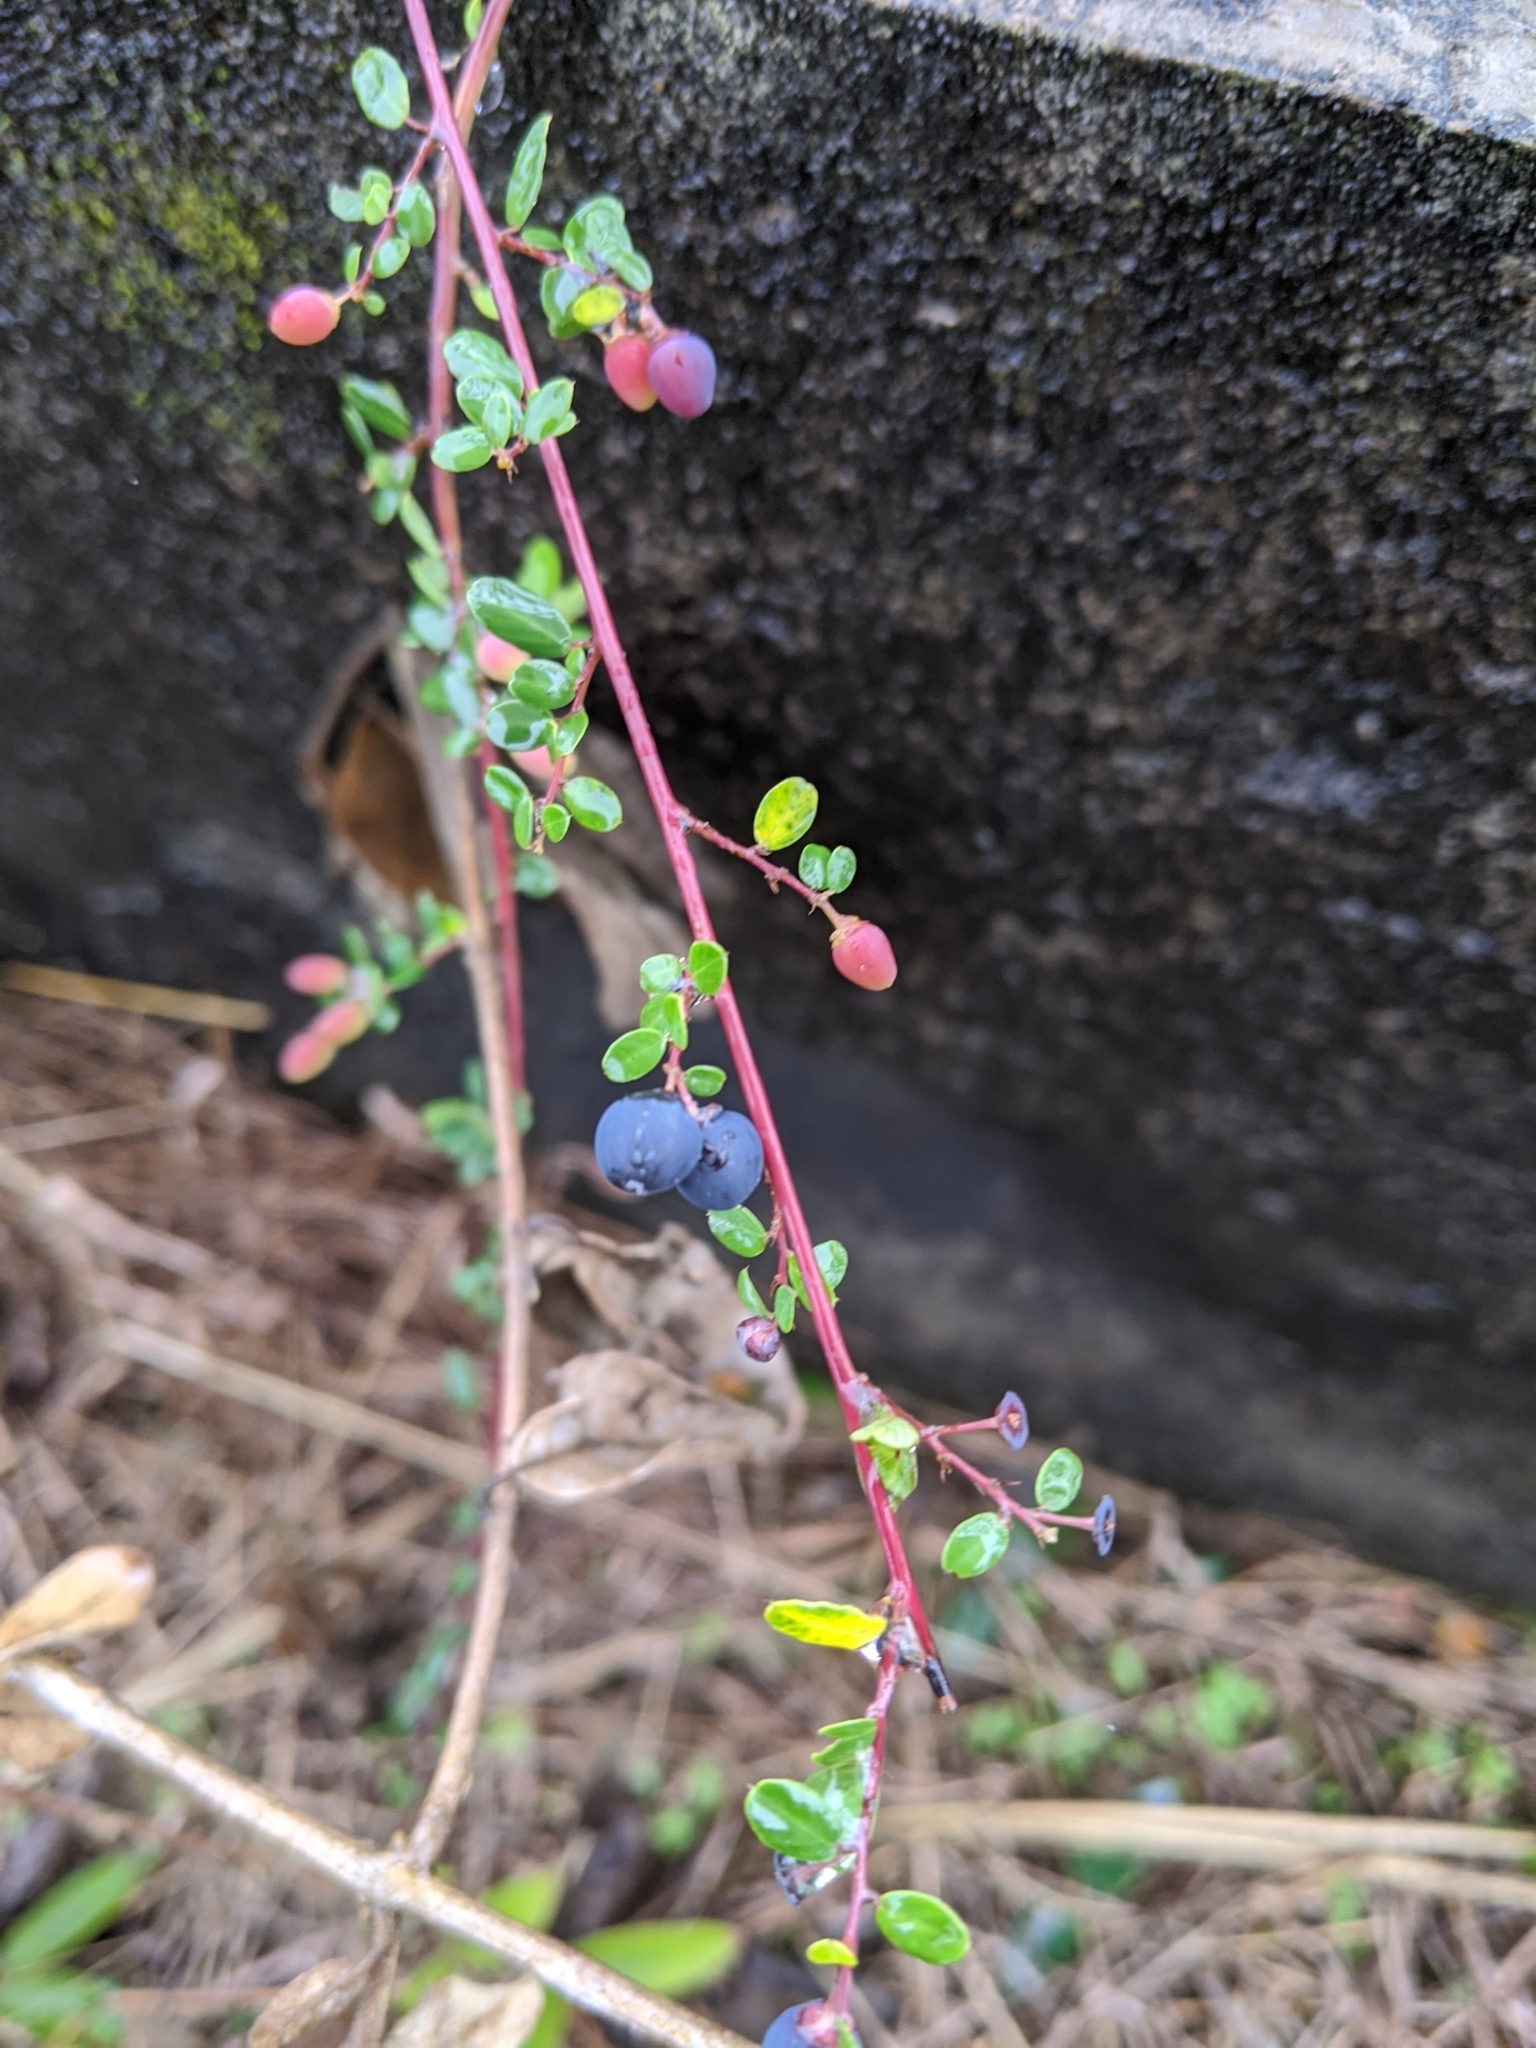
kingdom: Plantae
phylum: Tracheophyta
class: Magnoliopsida
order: Rosales
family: Rhamnaceae
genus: Berchemia
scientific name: Berchemia lineata
